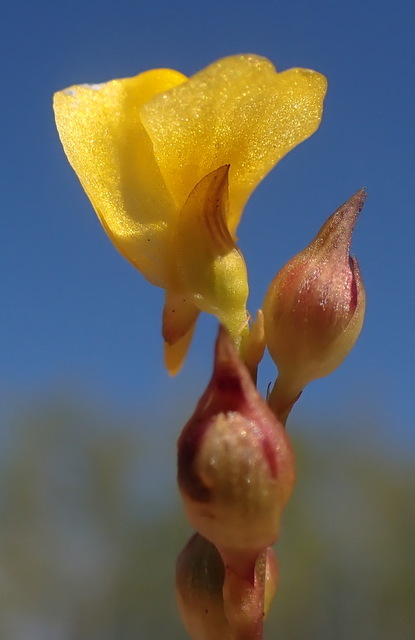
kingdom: Plantae
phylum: Tracheophyta
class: Magnoliopsida
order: Lamiales
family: Lentibulariaceae
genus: Utricularia
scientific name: Utricularia juncea
